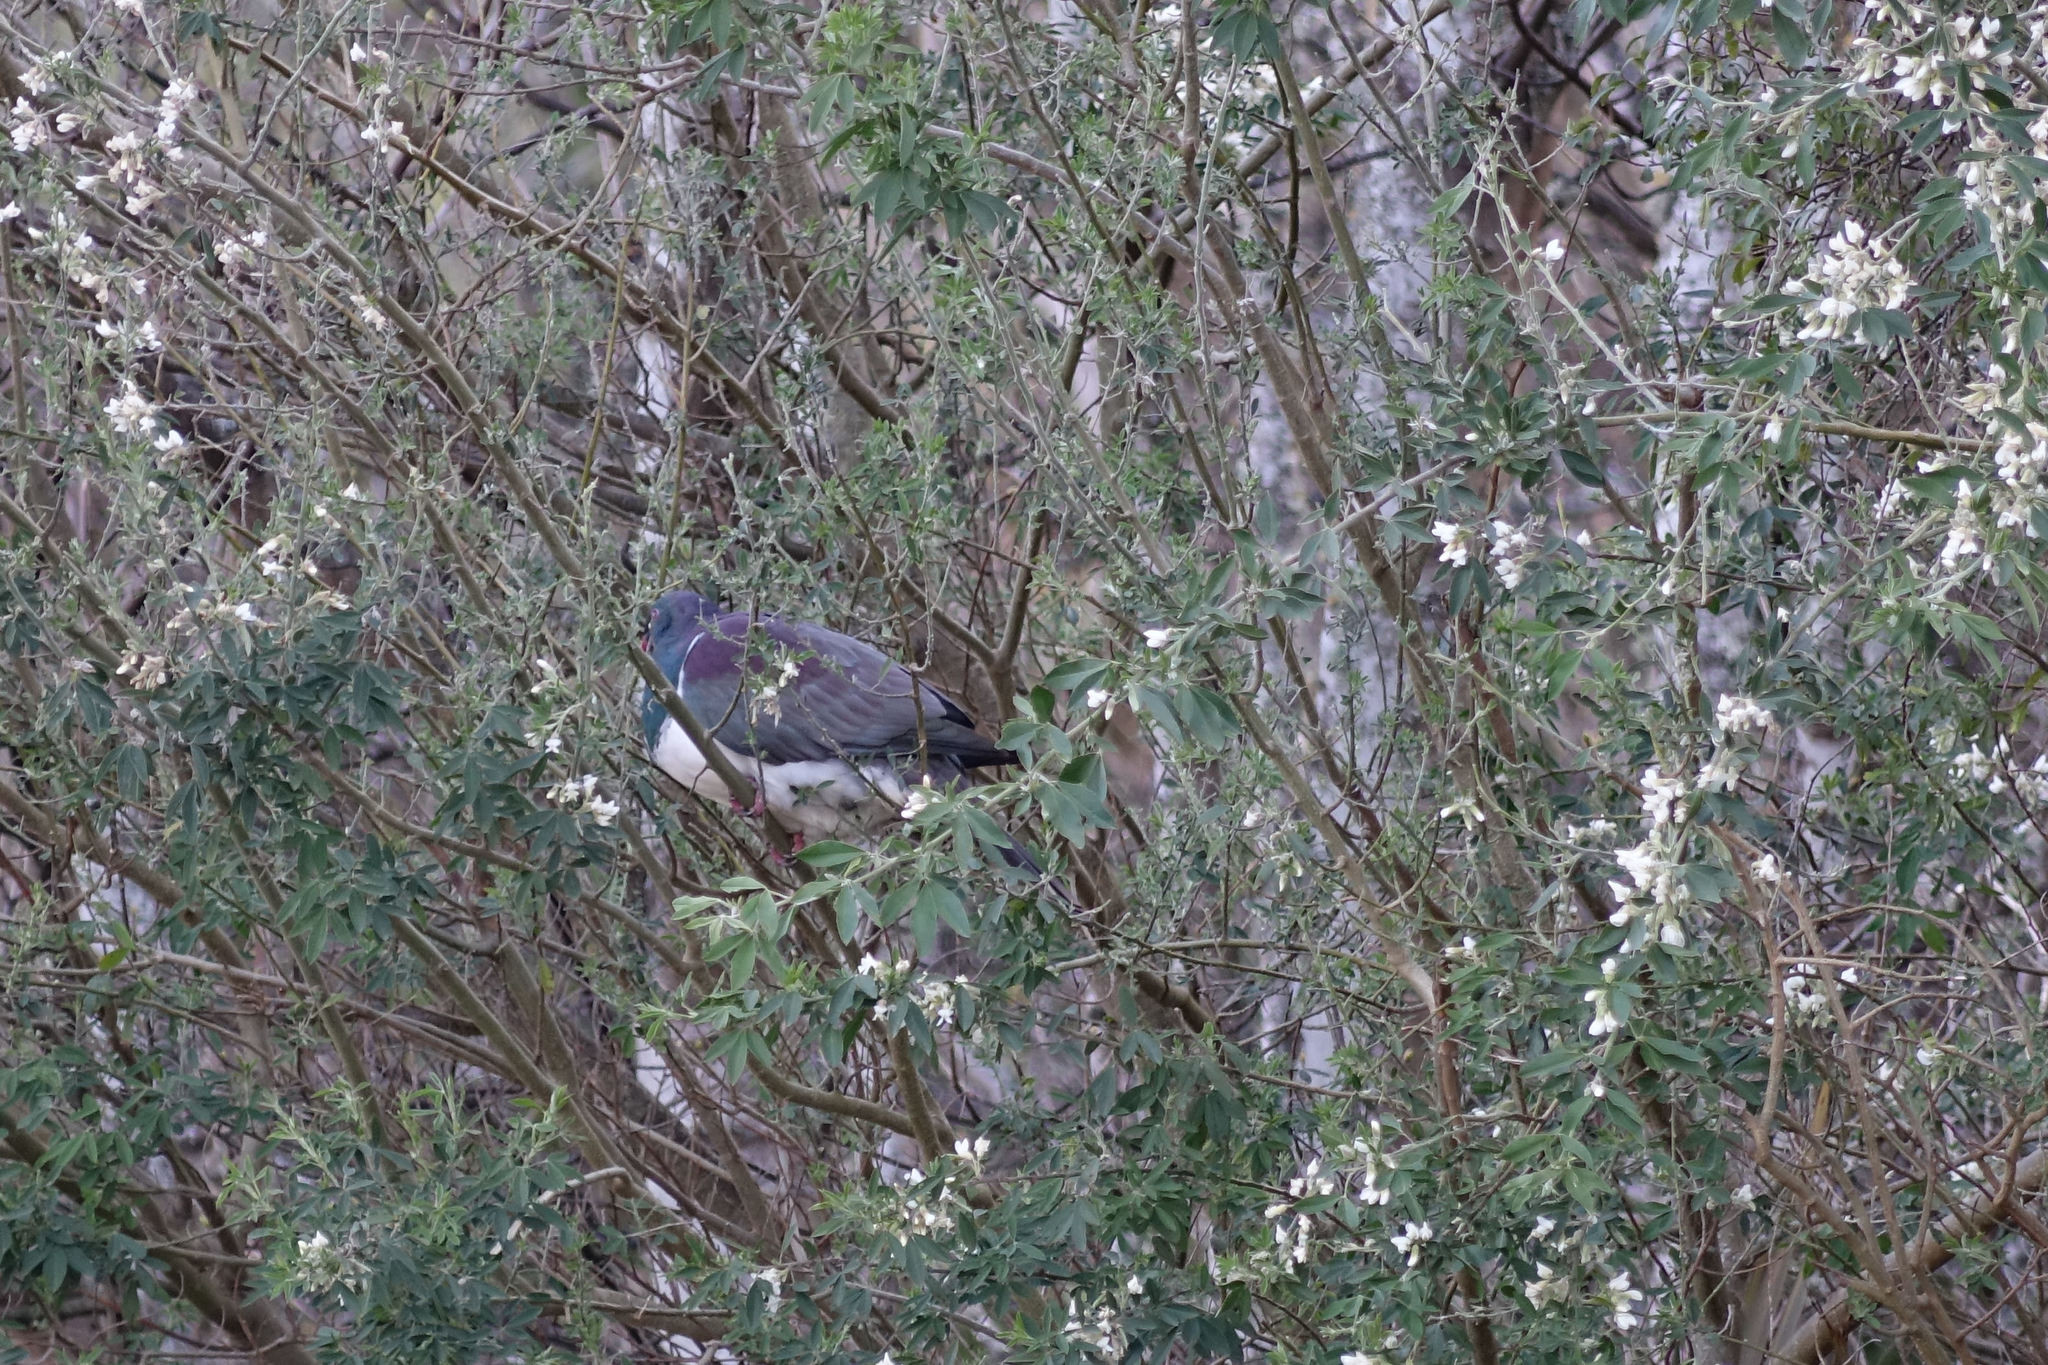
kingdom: Animalia
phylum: Chordata
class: Aves
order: Columbiformes
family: Columbidae
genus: Hemiphaga
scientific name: Hemiphaga novaeseelandiae
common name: New zealand pigeon
